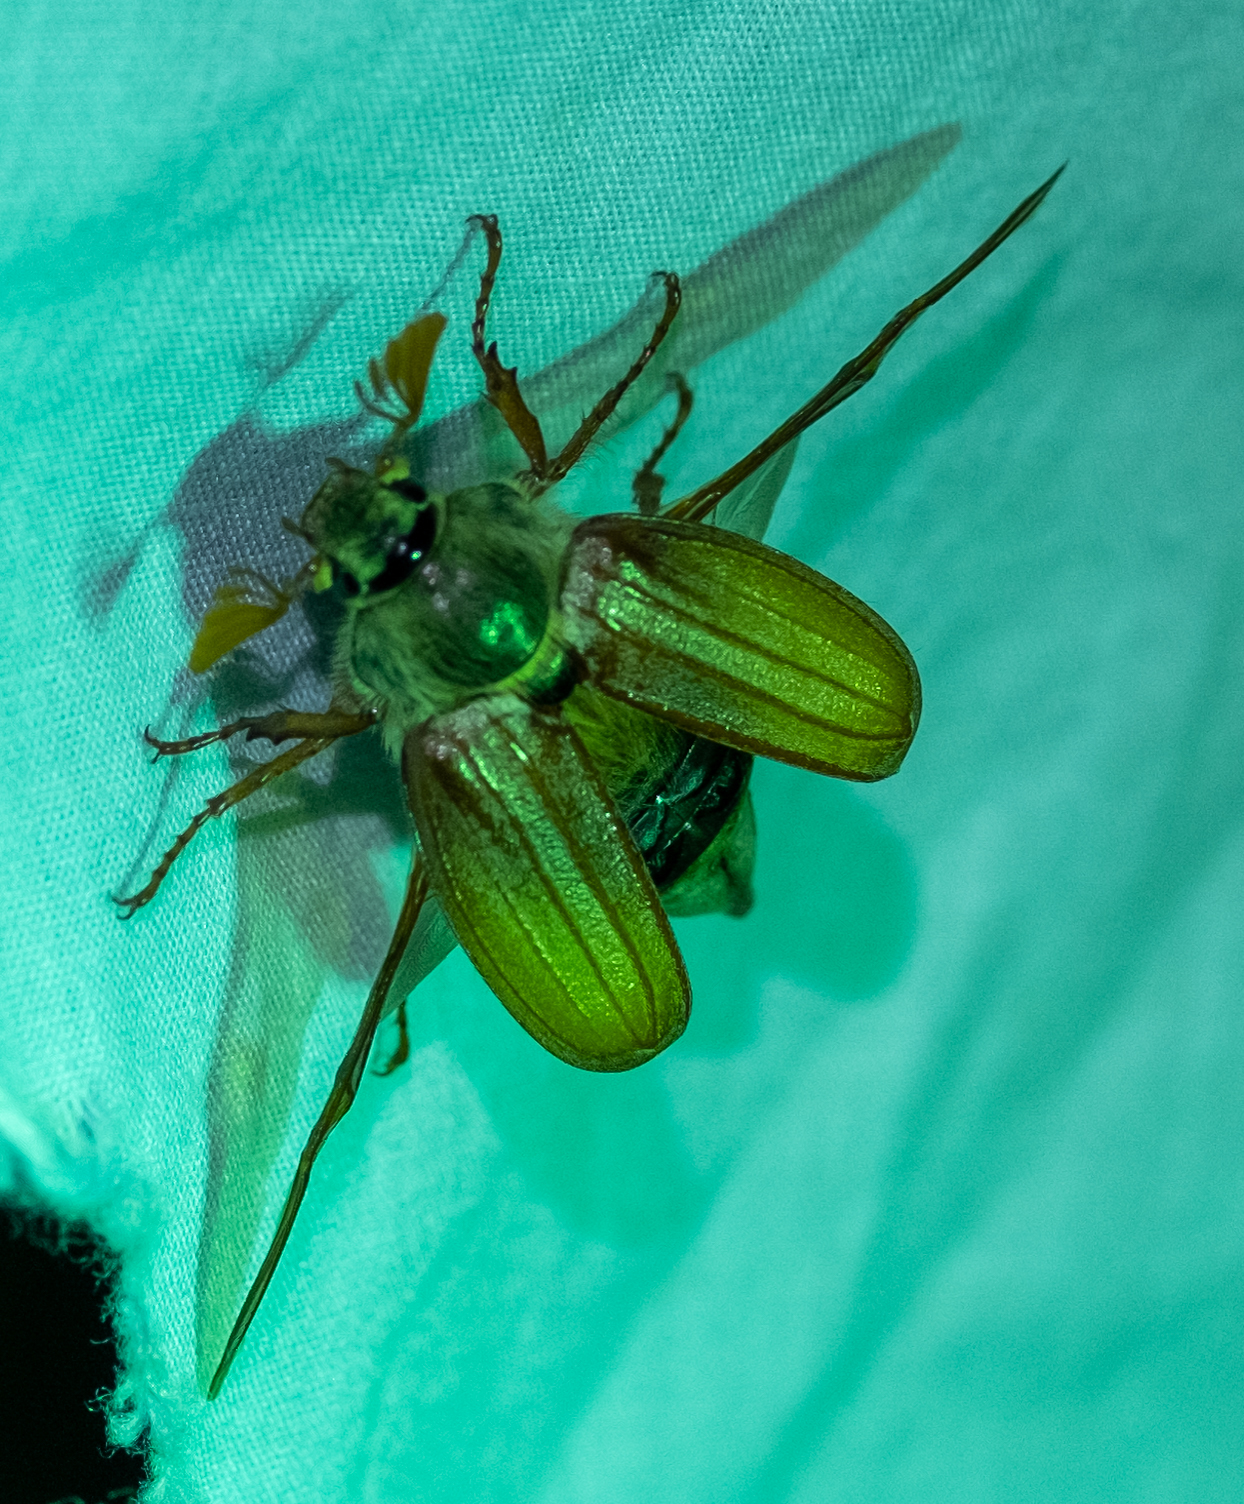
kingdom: Animalia
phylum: Arthropoda
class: Insecta
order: Coleoptera
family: Scarabaeidae
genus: Melolontha
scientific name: Melolontha melolontha
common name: Cockchafer maybeetle
